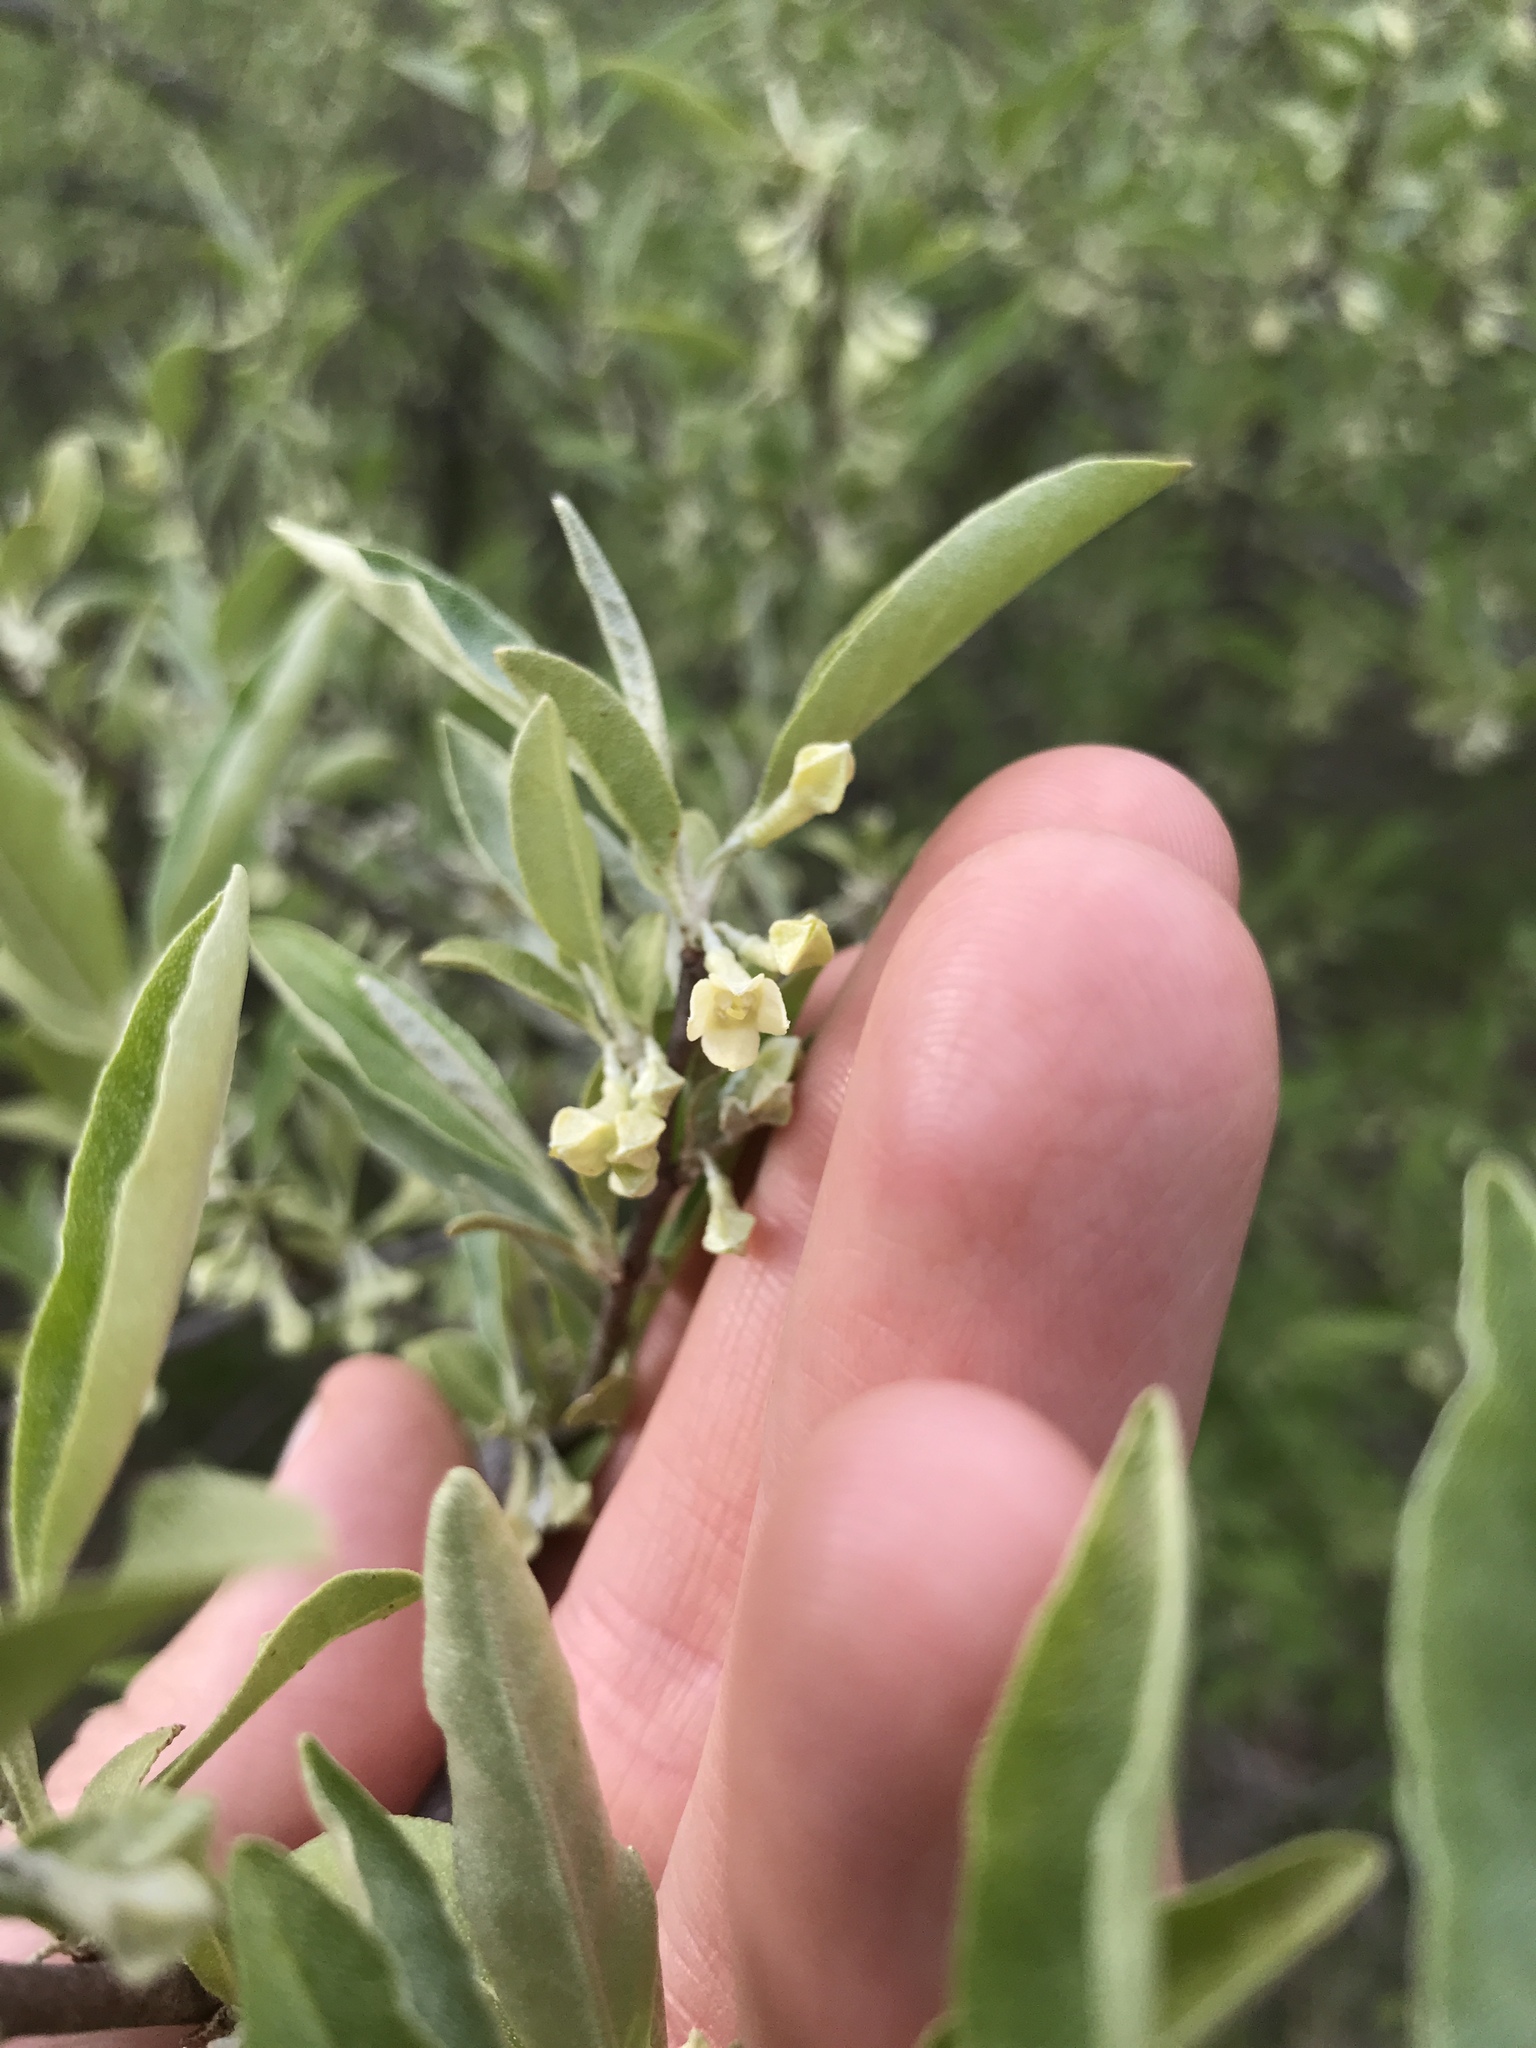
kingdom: Plantae
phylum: Tracheophyta
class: Magnoliopsida
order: Rosales
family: Elaeagnaceae
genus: Elaeagnus
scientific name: Elaeagnus umbellata
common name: Autumn olive
